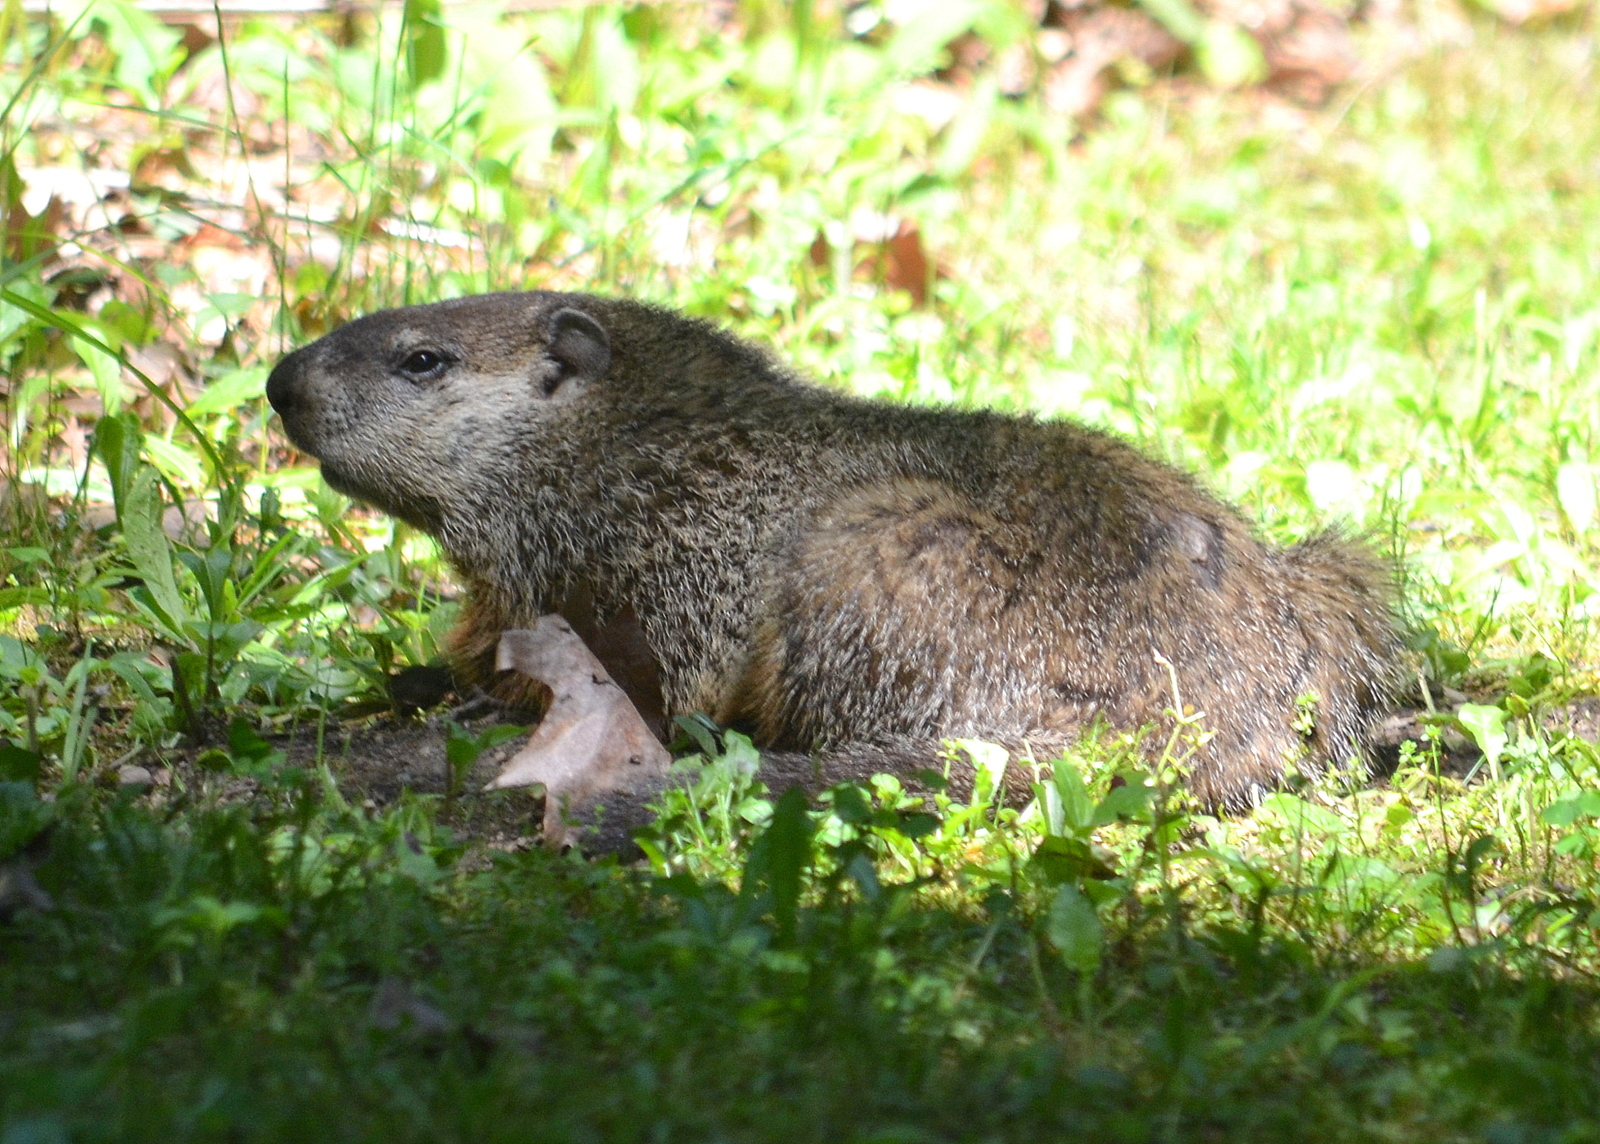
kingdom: Animalia
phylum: Chordata
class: Mammalia
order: Rodentia
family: Sciuridae
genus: Marmota
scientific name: Marmota monax
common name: Groundhog
